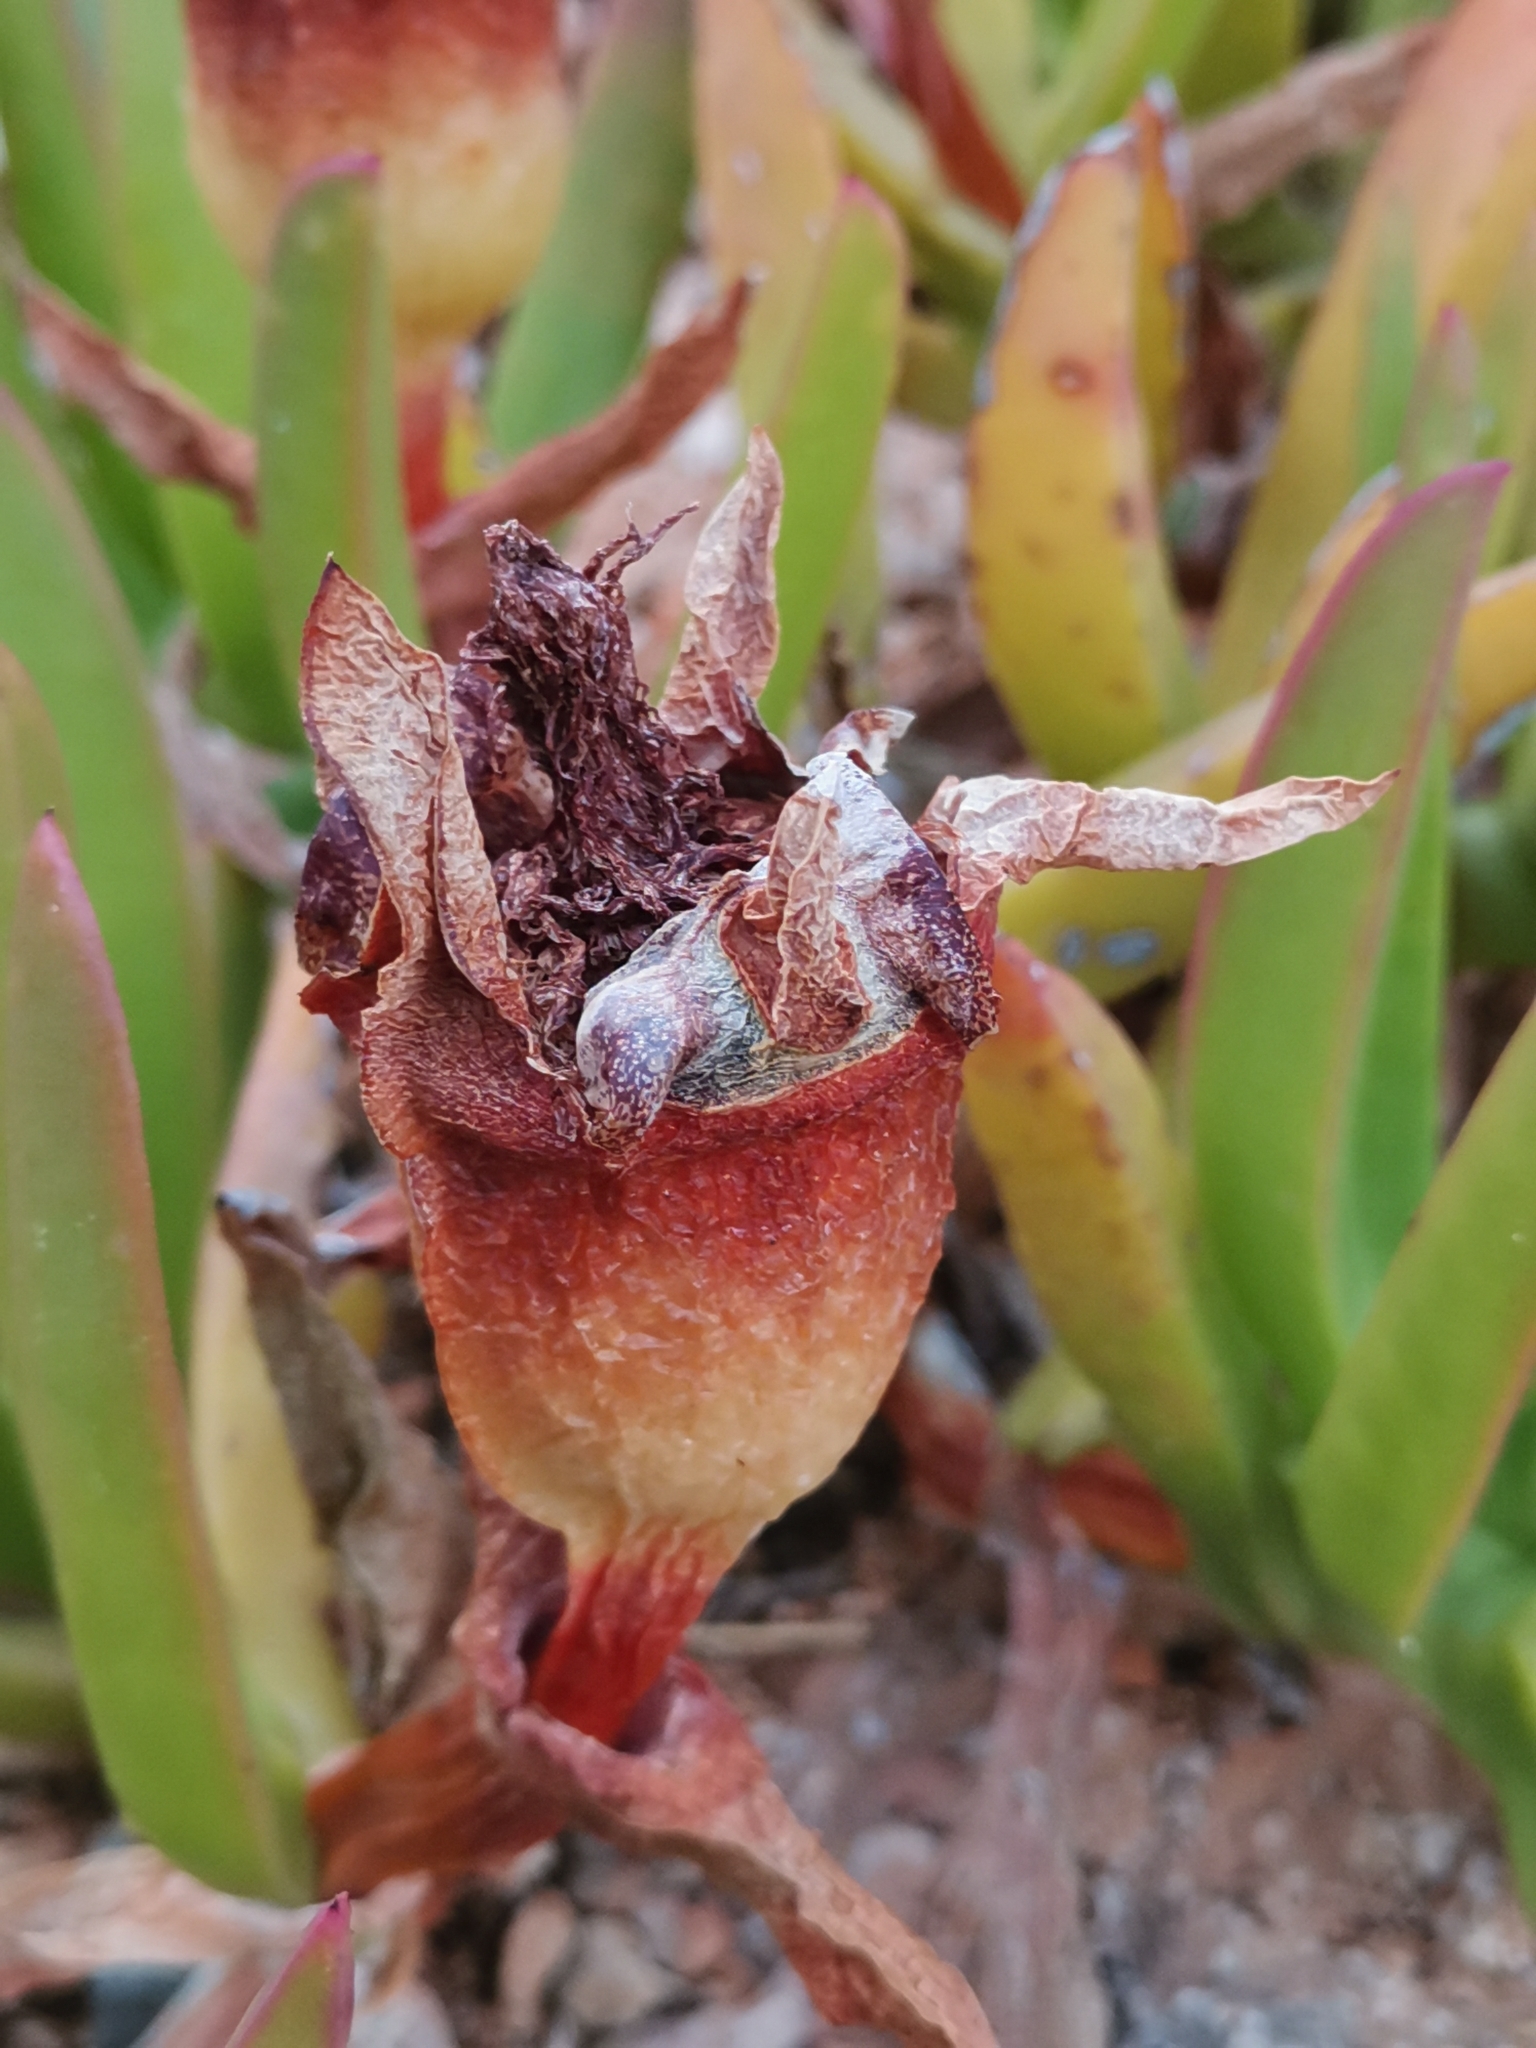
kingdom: Plantae
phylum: Tracheophyta
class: Magnoliopsida
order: Caryophyllales
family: Aizoaceae
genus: Carpobrotus
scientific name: Carpobrotus edulis
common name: Hottentot-fig
